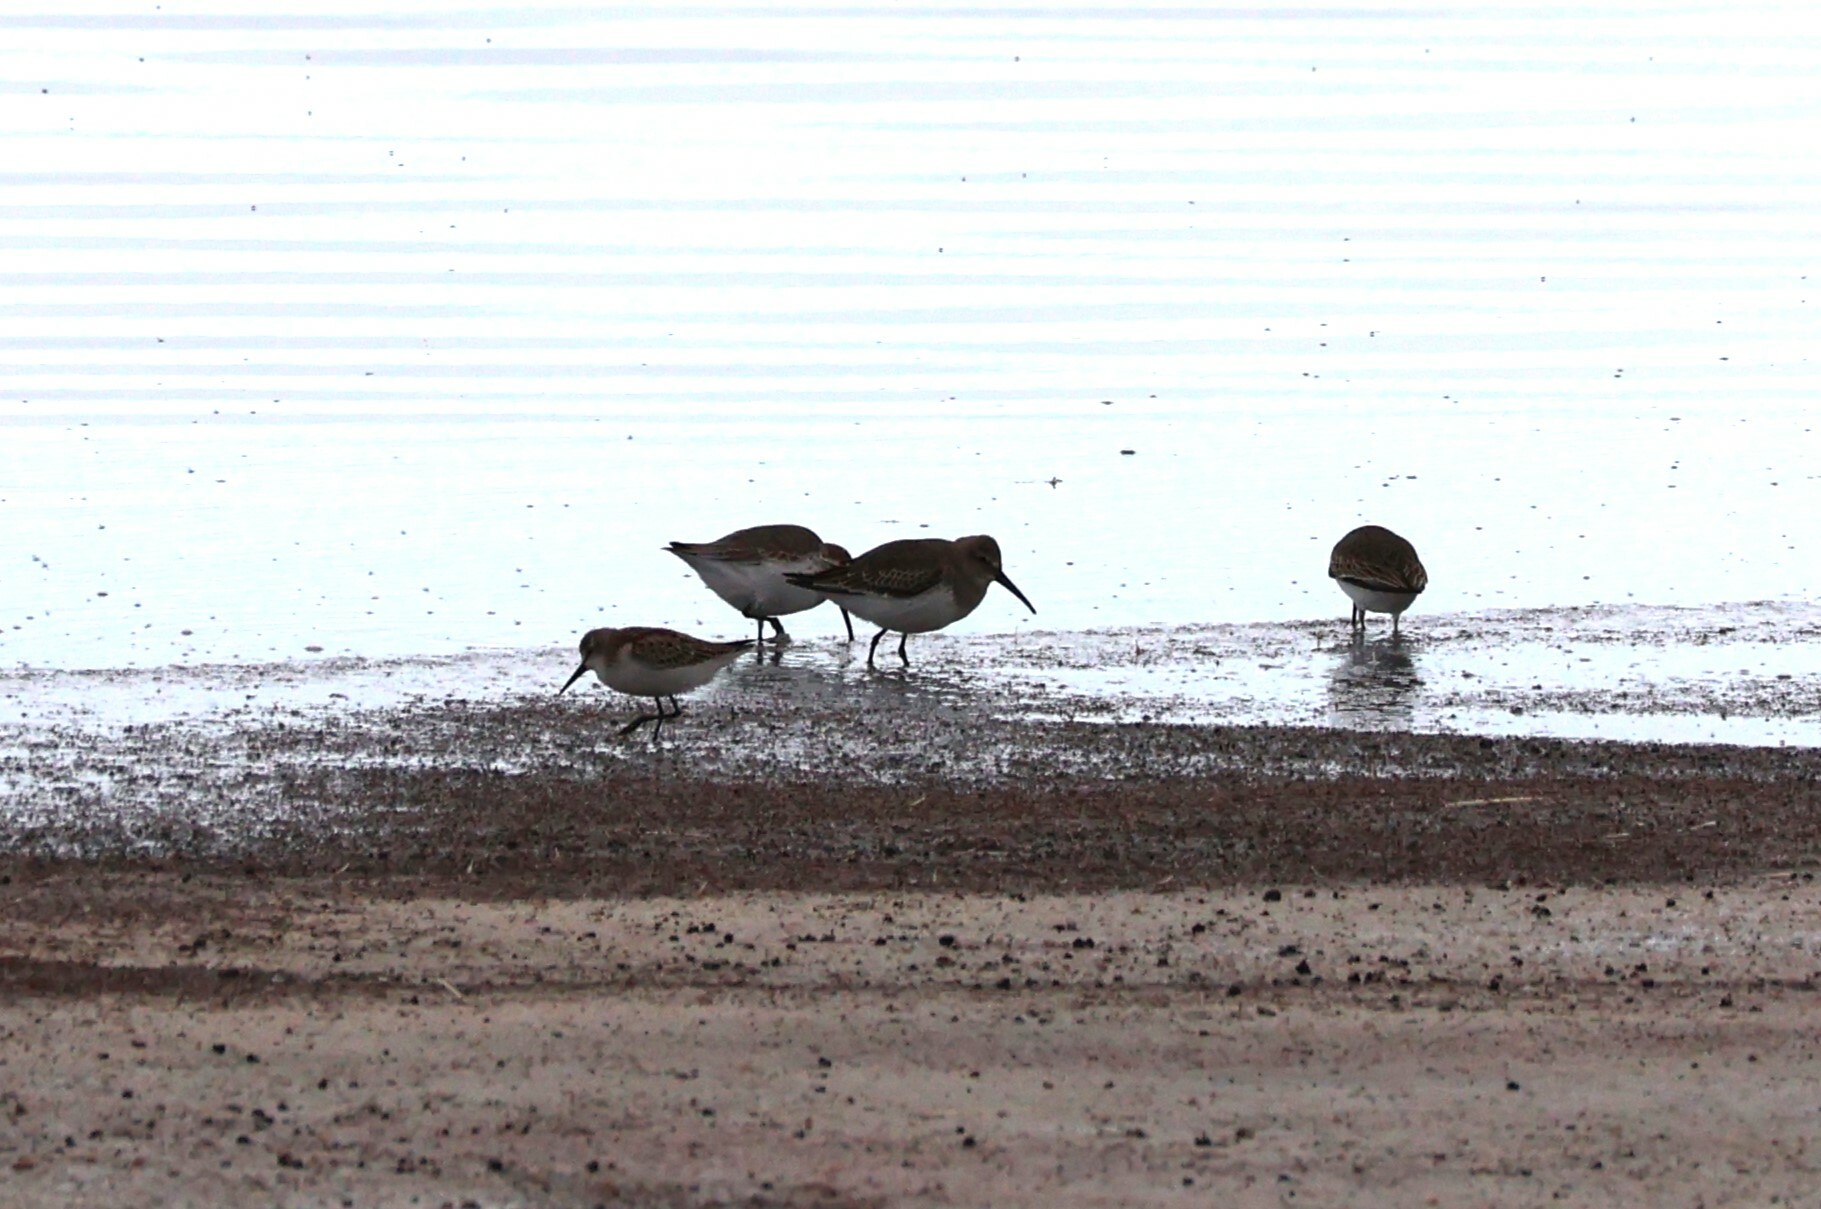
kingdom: Animalia
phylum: Chordata
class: Aves
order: Charadriiformes
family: Scolopacidae
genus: Calidris
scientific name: Calidris alpina
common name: Dunlin
